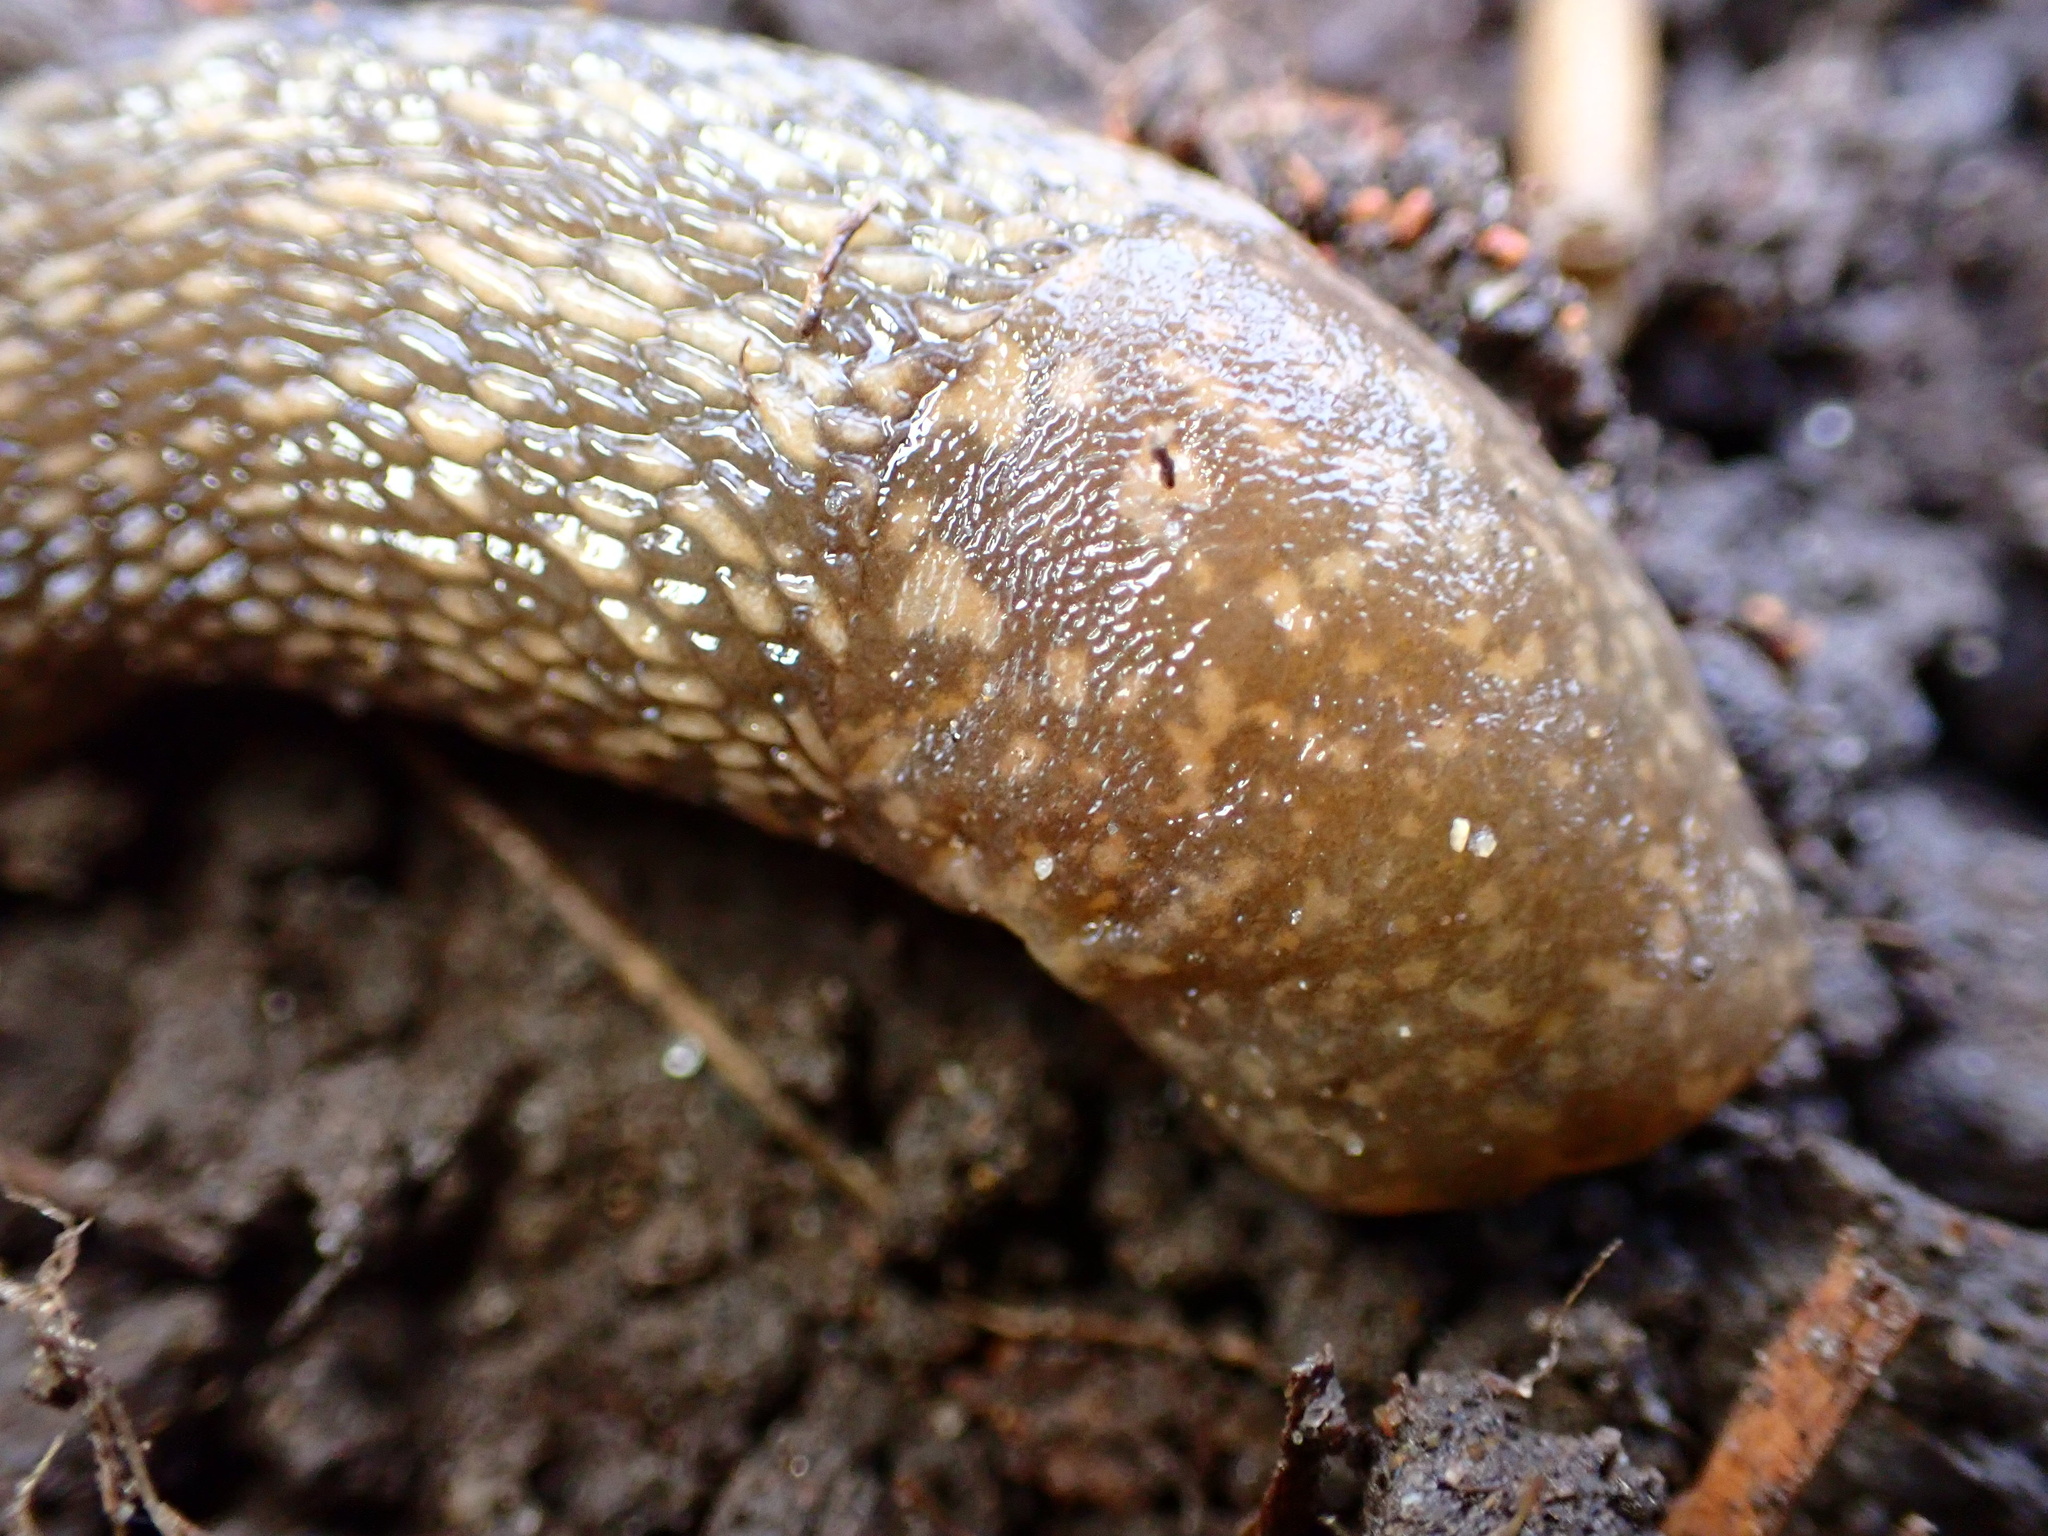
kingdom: Animalia
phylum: Mollusca
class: Gastropoda
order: Stylommatophora
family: Limacidae
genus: Limacus
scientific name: Limacus flavus
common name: Yellow gardenslug
